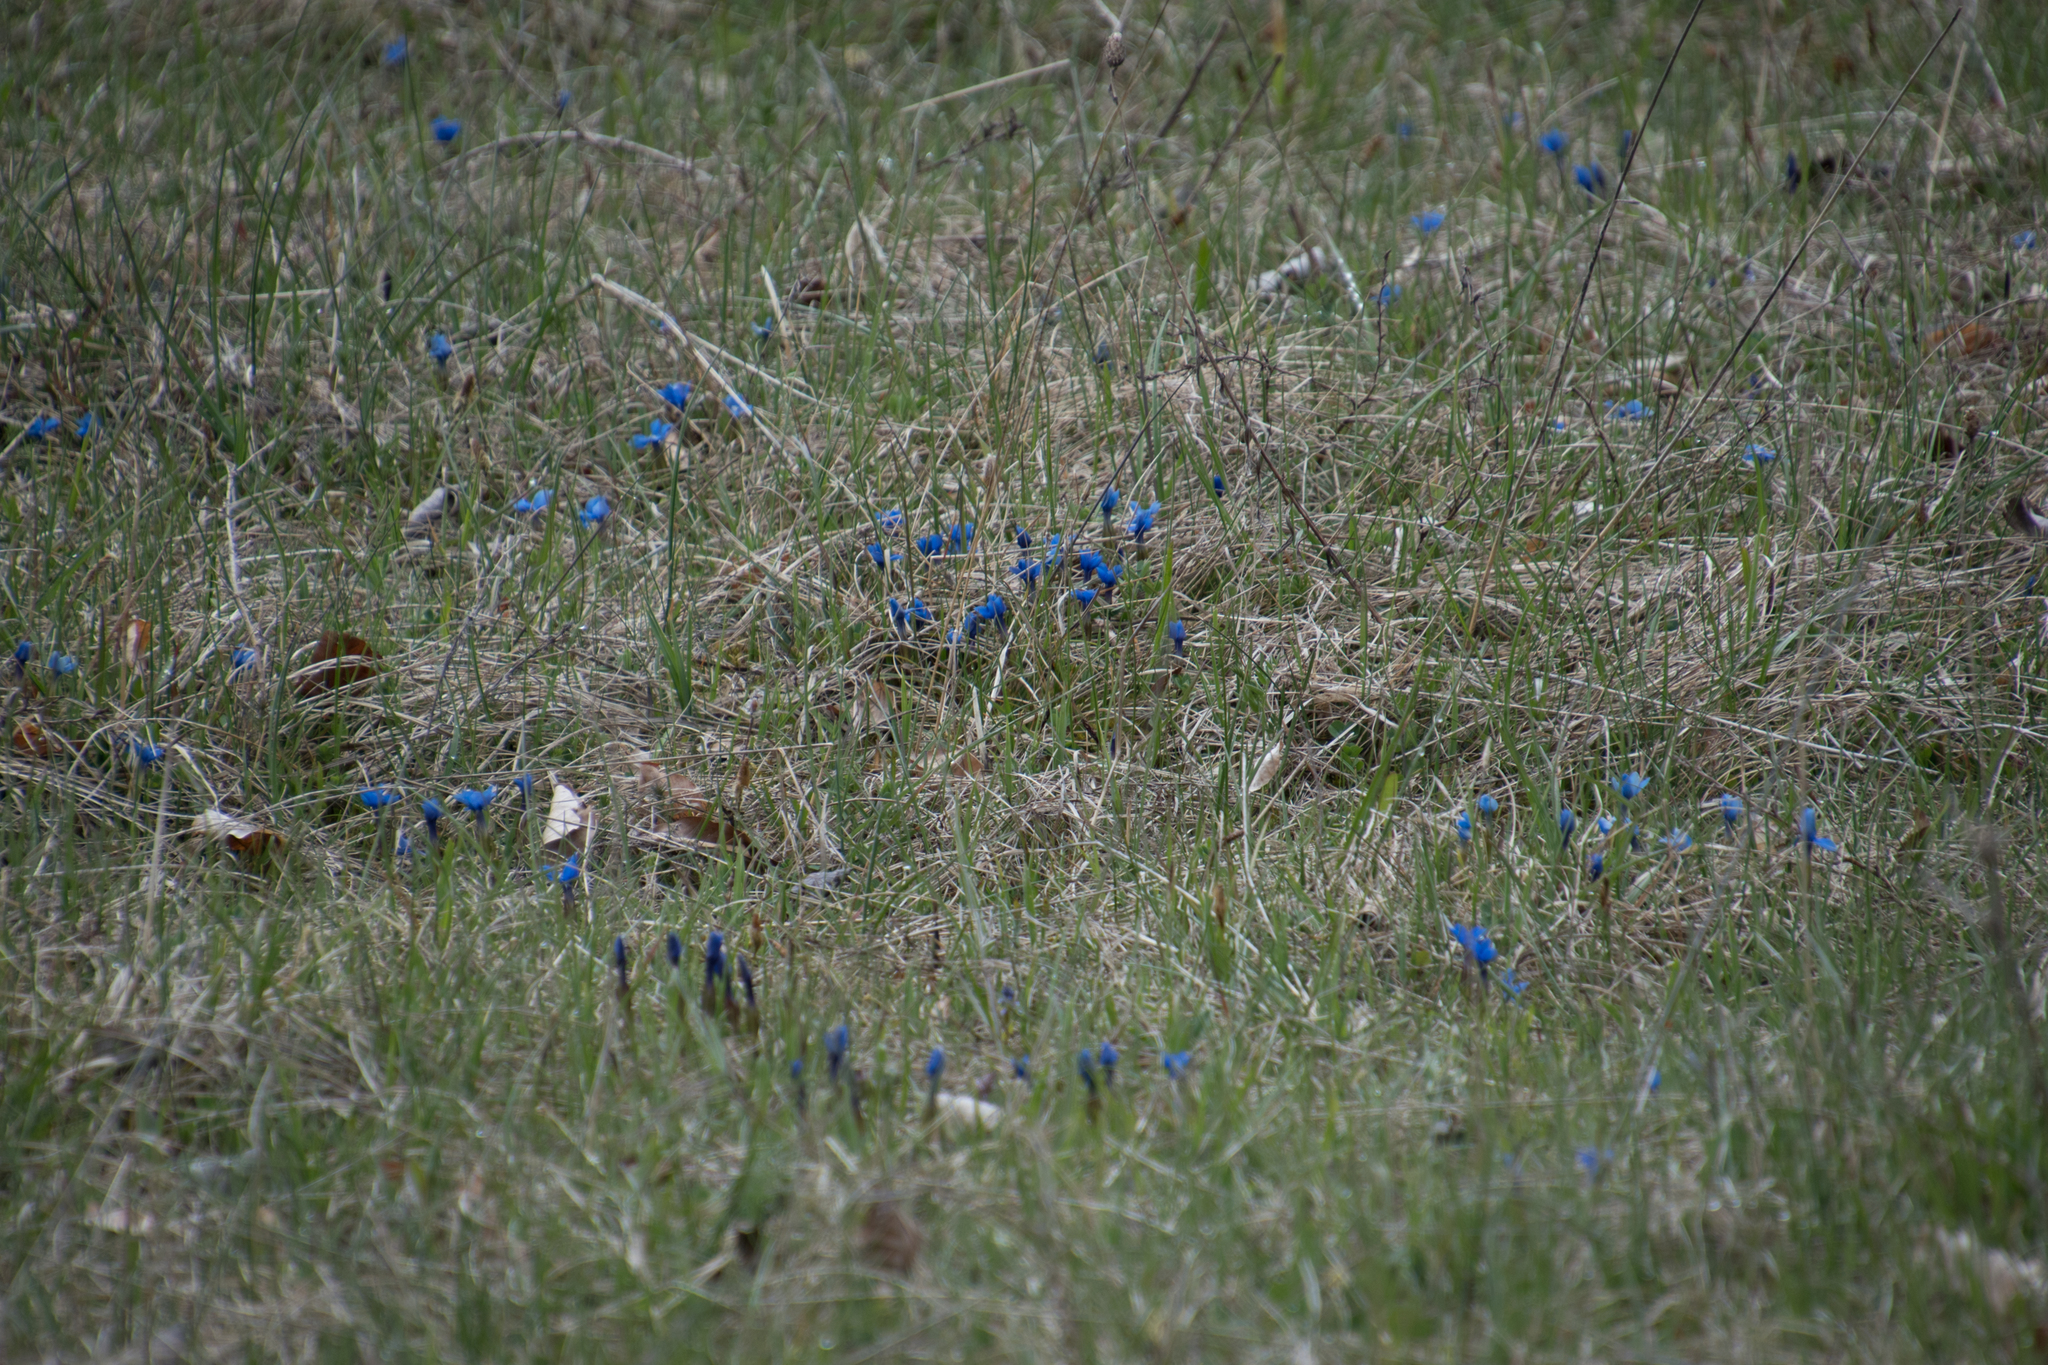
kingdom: Plantae
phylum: Tracheophyta
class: Magnoliopsida
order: Gentianales
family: Gentianaceae
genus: Gentiana
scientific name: Gentiana verna
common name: Spring gentian
